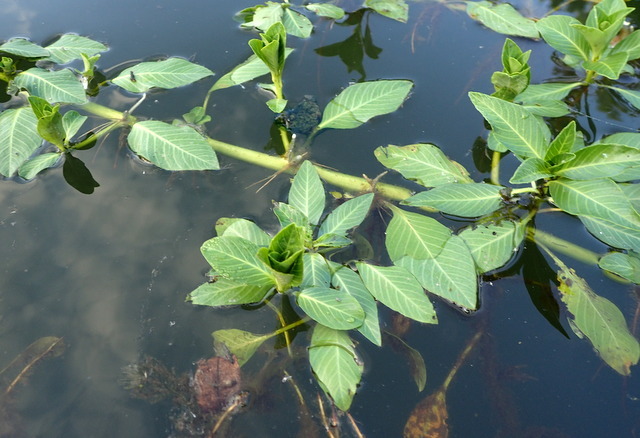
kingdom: Plantae
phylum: Tracheophyta
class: Magnoliopsida
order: Myrtales
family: Onagraceae
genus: Ludwigia
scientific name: Ludwigia peploides
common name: Floating primrose-willow
